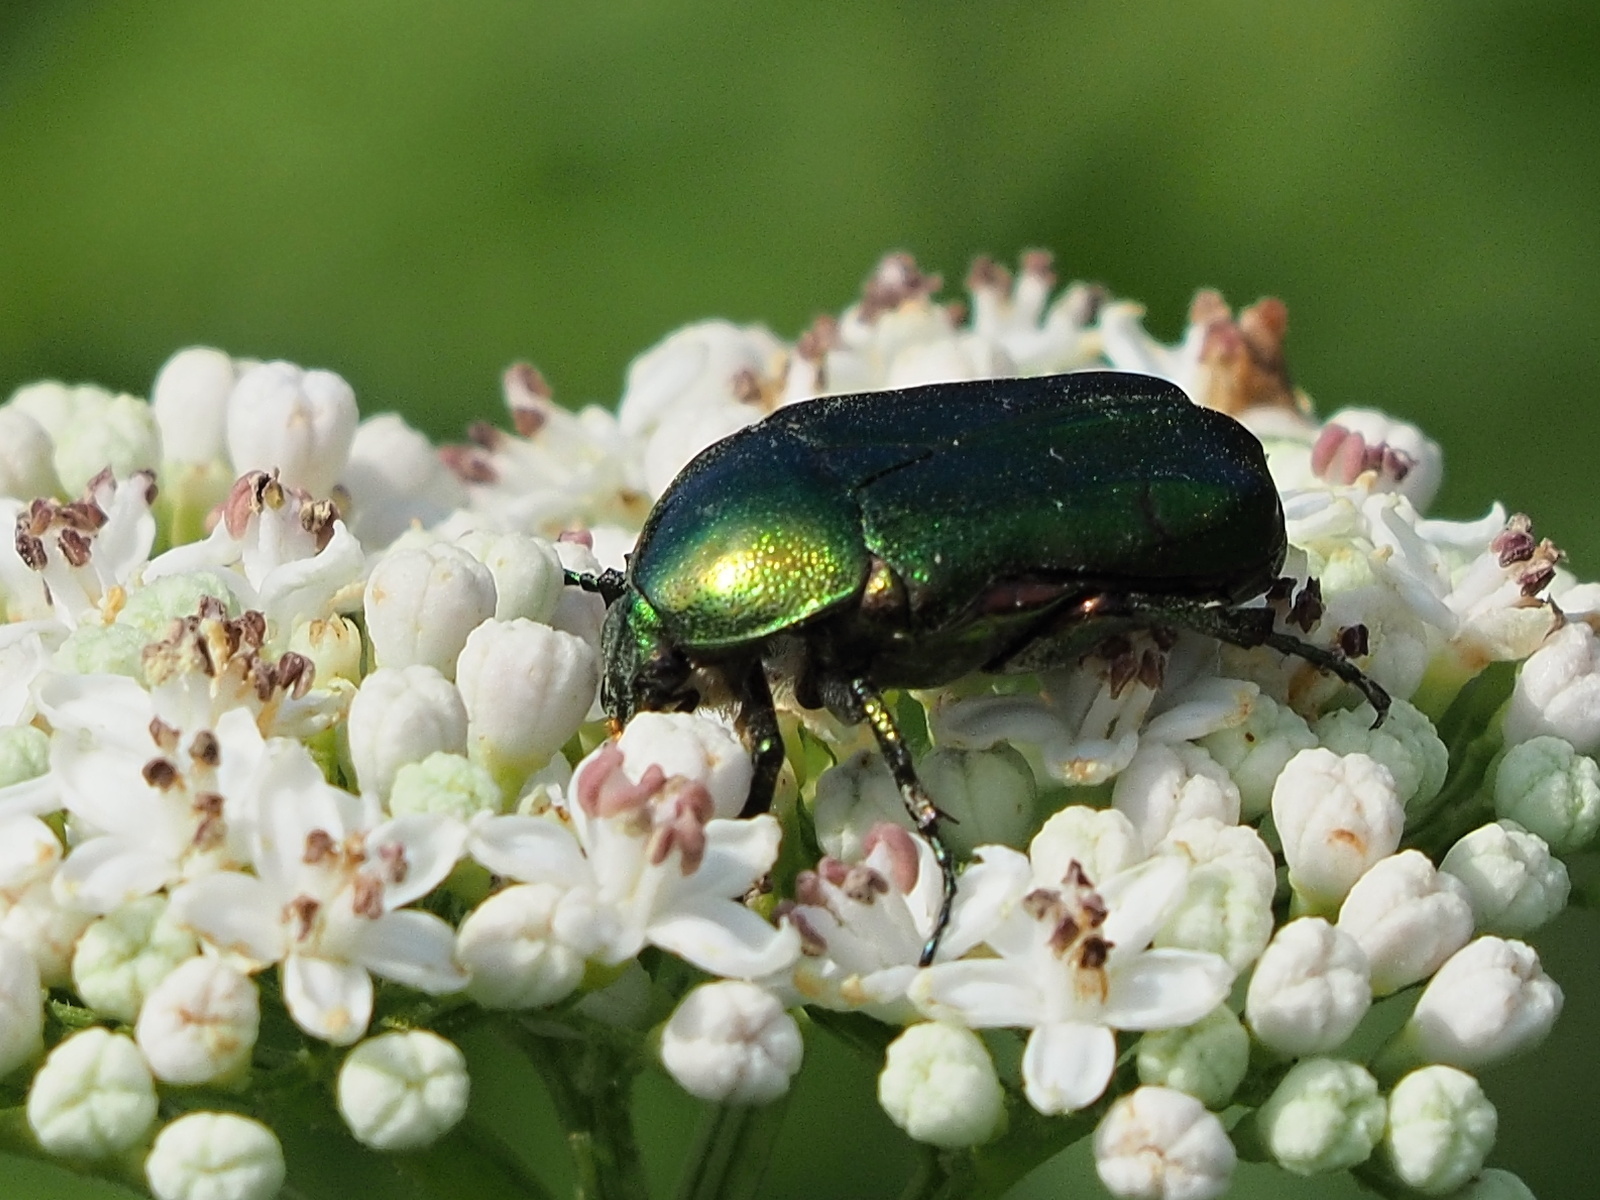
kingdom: Animalia
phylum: Arthropoda
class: Insecta
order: Coleoptera
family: Scarabaeidae
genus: Cetonia
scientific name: Cetonia aurata
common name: Rose chafer
